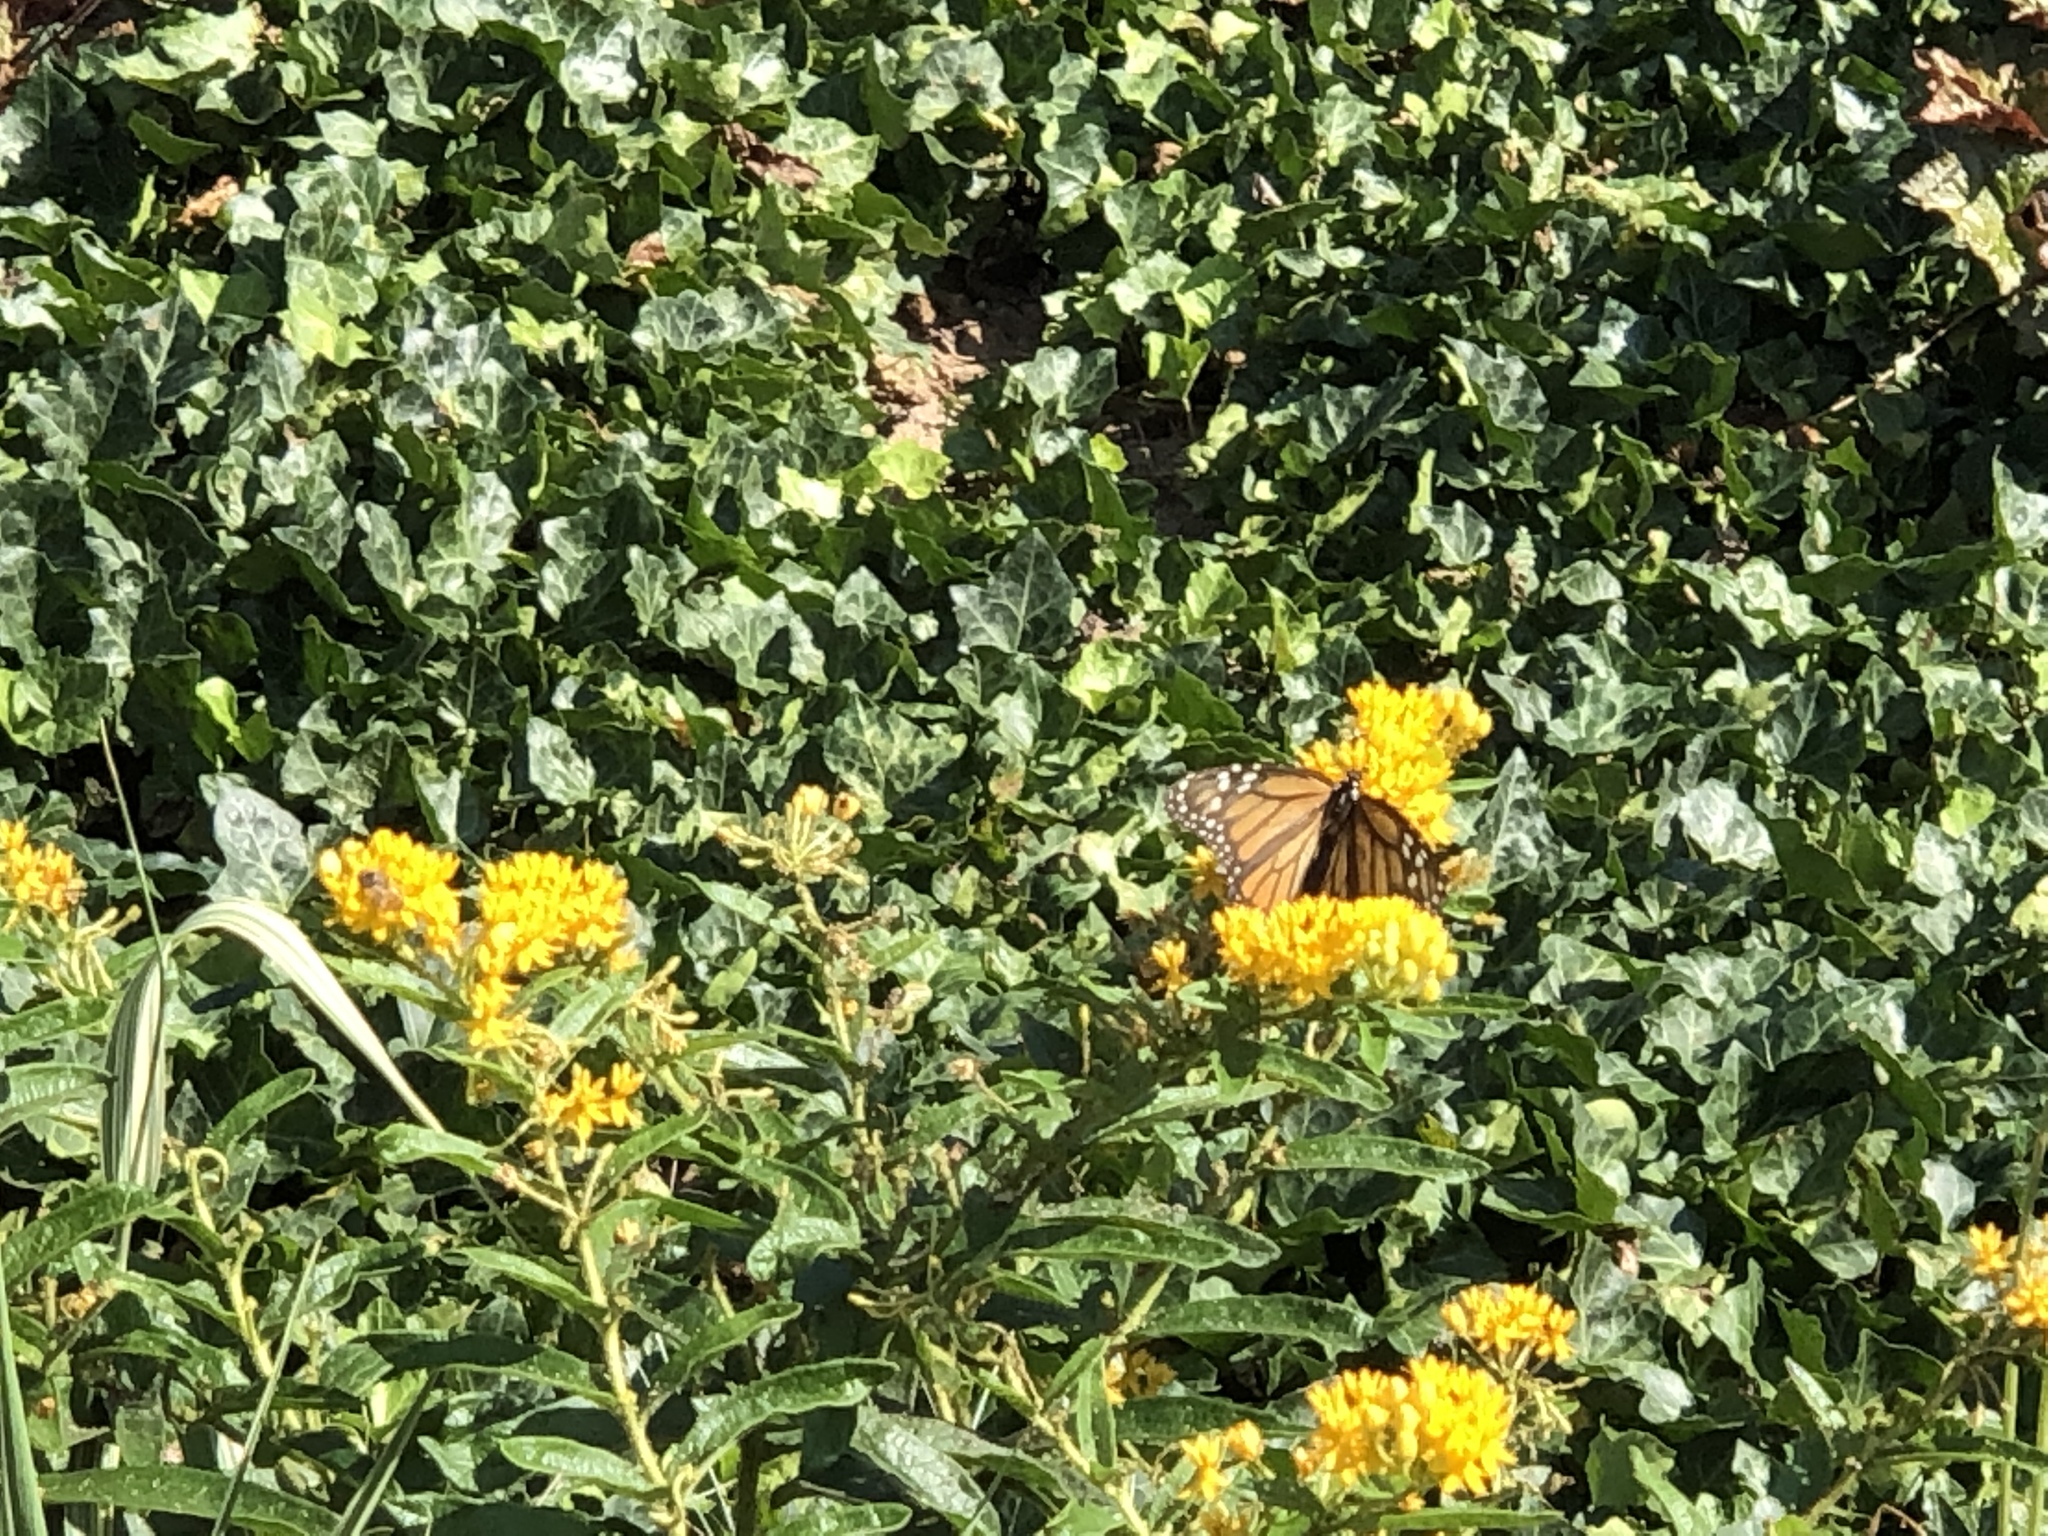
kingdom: Animalia
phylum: Arthropoda
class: Insecta
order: Lepidoptera
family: Nymphalidae
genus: Danaus
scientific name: Danaus plexippus
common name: Monarch
